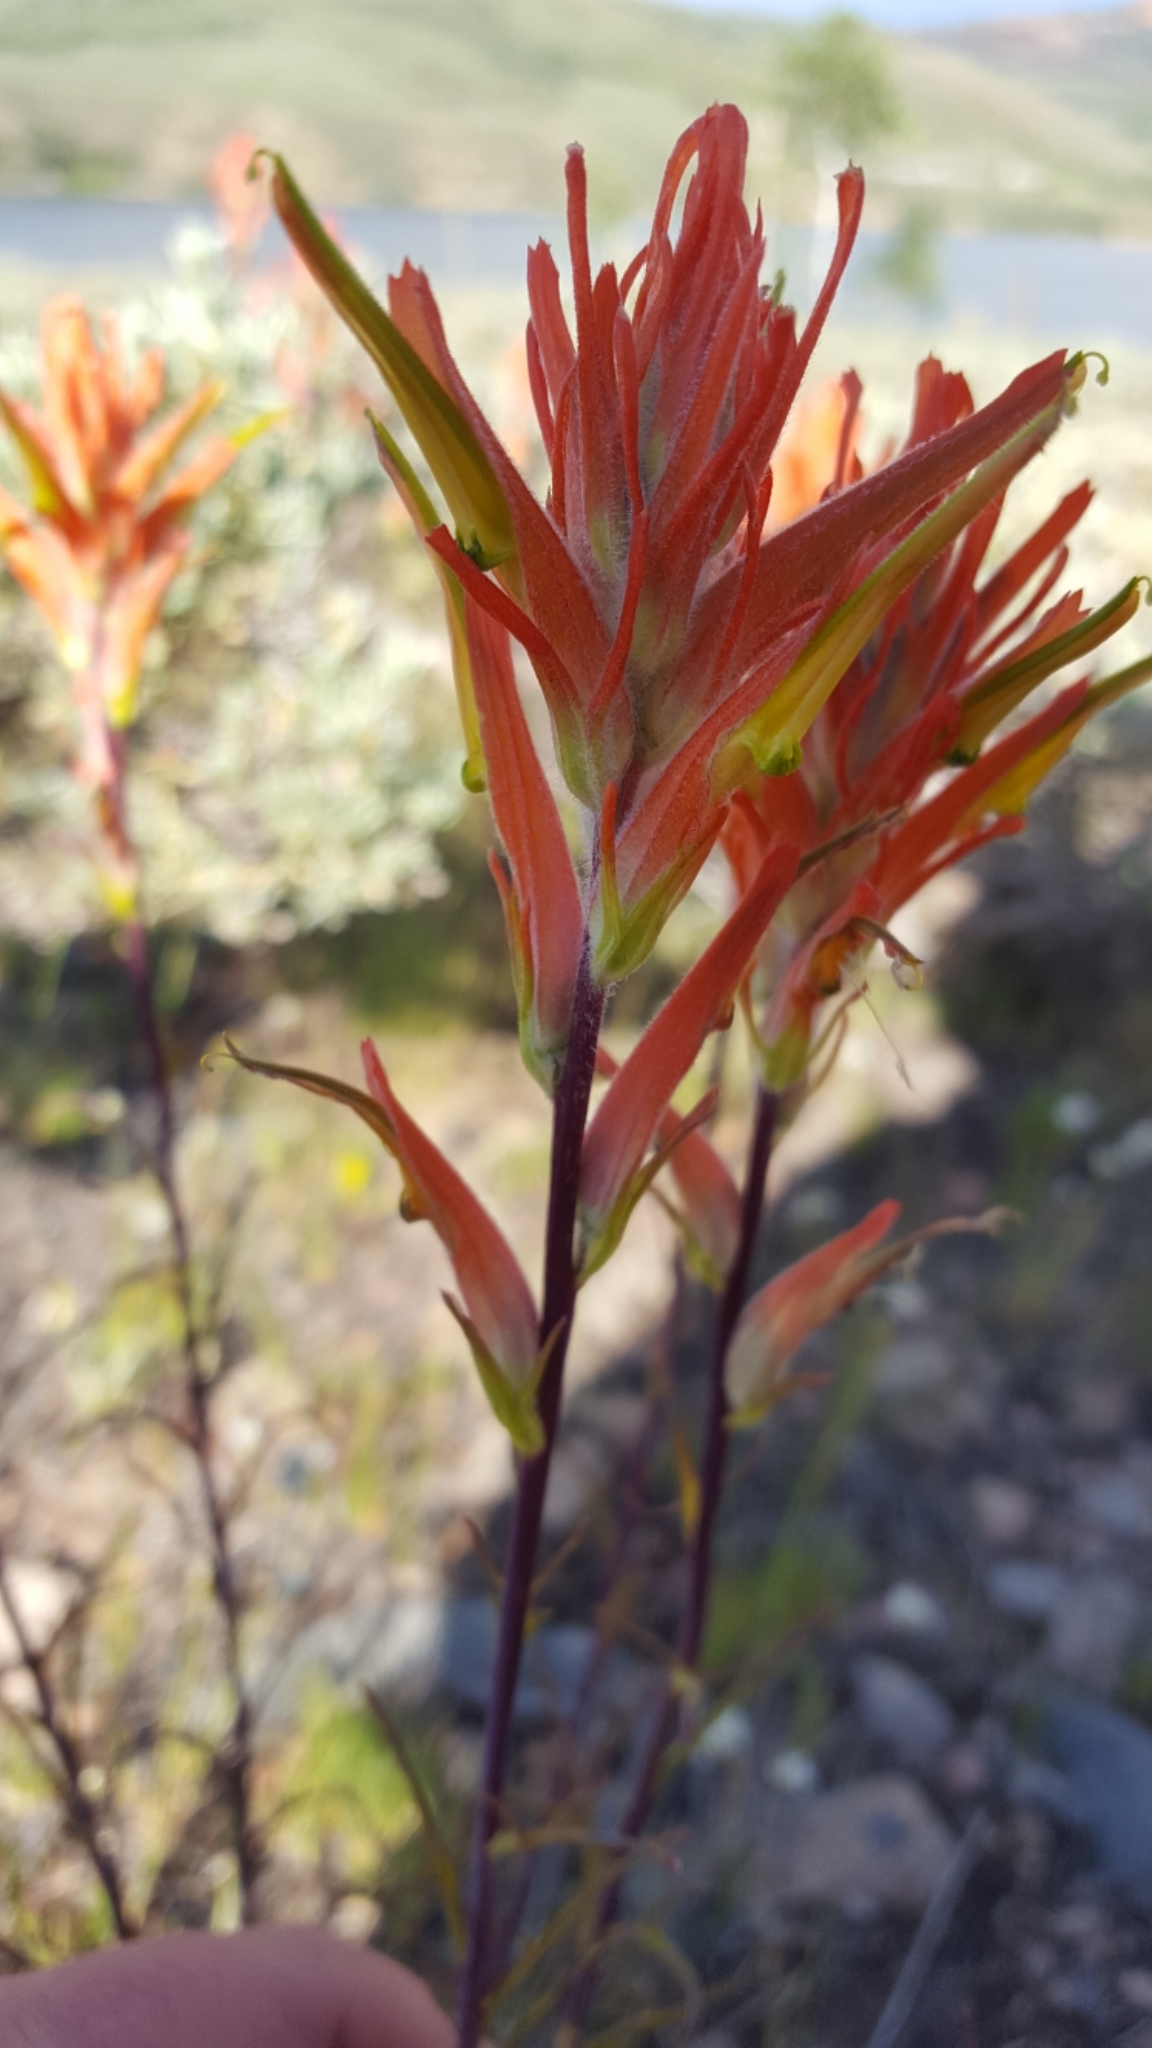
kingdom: Plantae
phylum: Tracheophyta
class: Magnoliopsida
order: Lamiales
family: Orobanchaceae
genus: Castilleja
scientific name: Castilleja linariifolia
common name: Wyoming paintbrush
